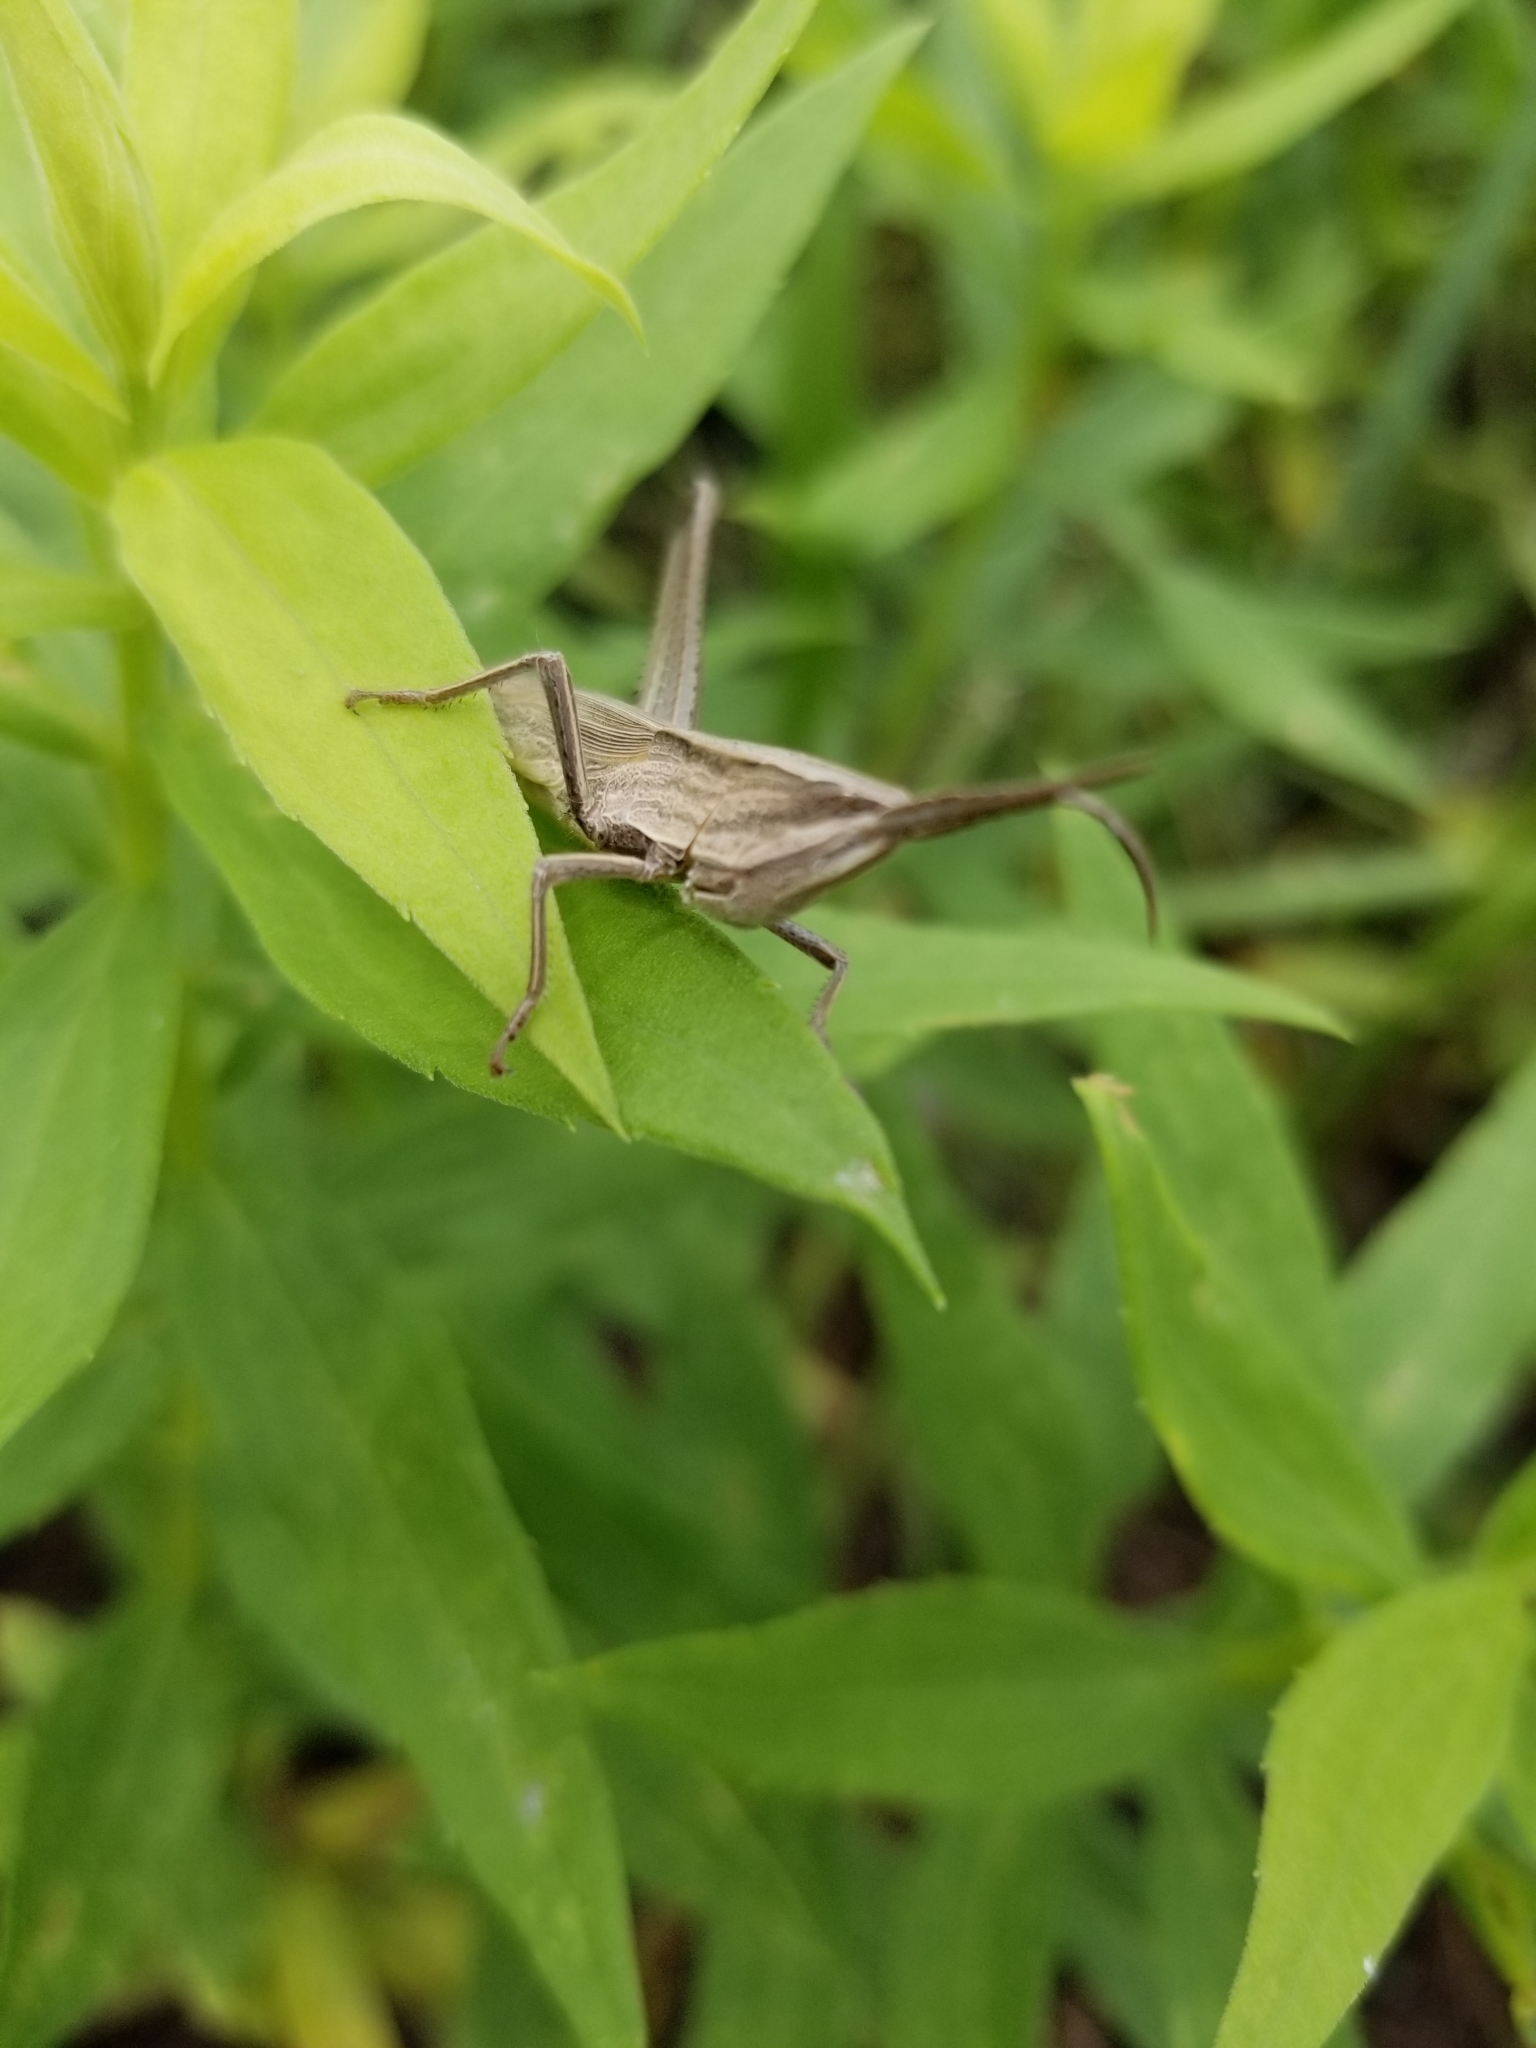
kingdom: Animalia
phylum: Arthropoda
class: Insecta
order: Orthoptera
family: Acrididae
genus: Pseudopomala
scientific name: Pseudopomala brachyptera
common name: Bunchgrass grasshopper
